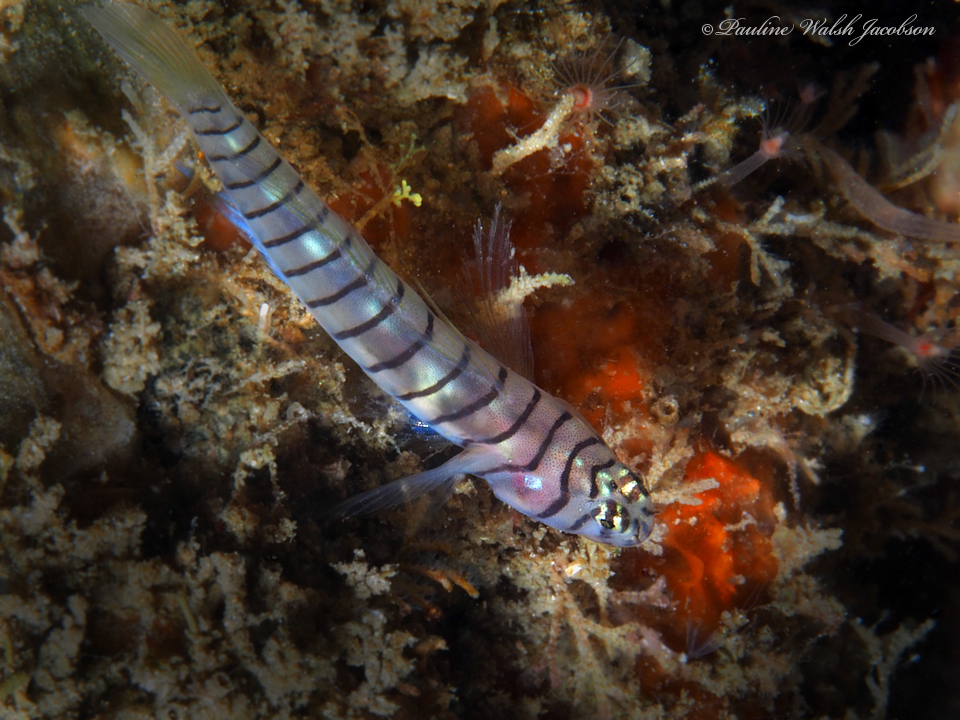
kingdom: Animalia
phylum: Chordata
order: Perciformes
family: Gobiidae
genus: Tigrigobius
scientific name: Tigrigobius macrodon
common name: Tiger goby
